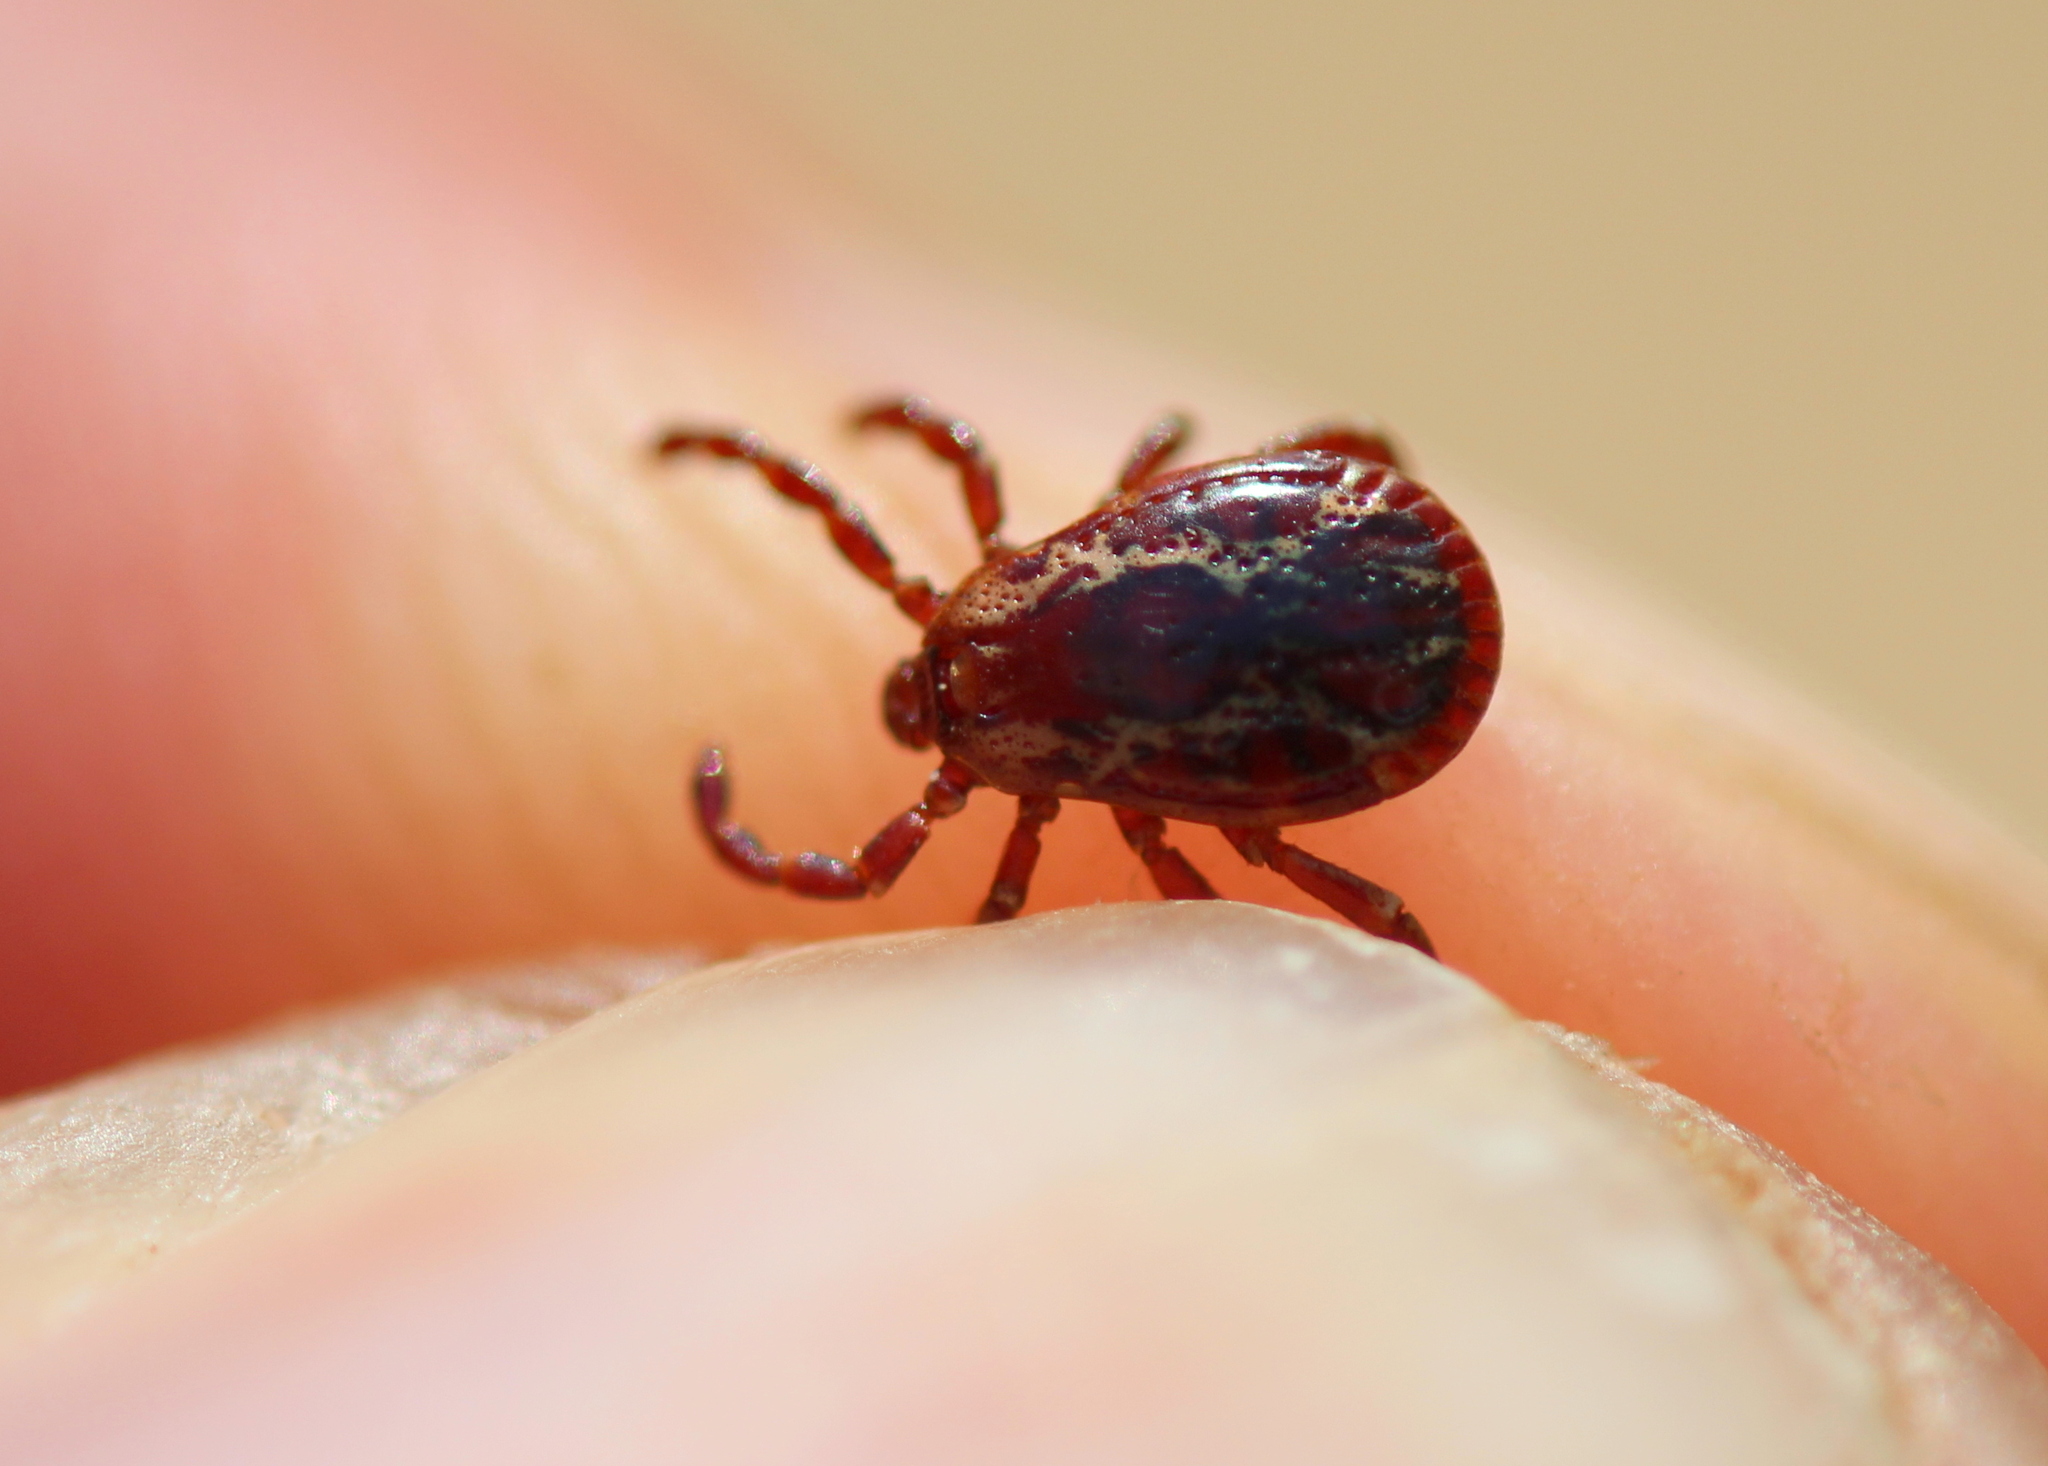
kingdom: Animalia
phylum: Arthropoda
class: Arachnida
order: Ixodida
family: Ixodidae
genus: Dermacentor
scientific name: Dermacentor variabilis
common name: American dog tick
